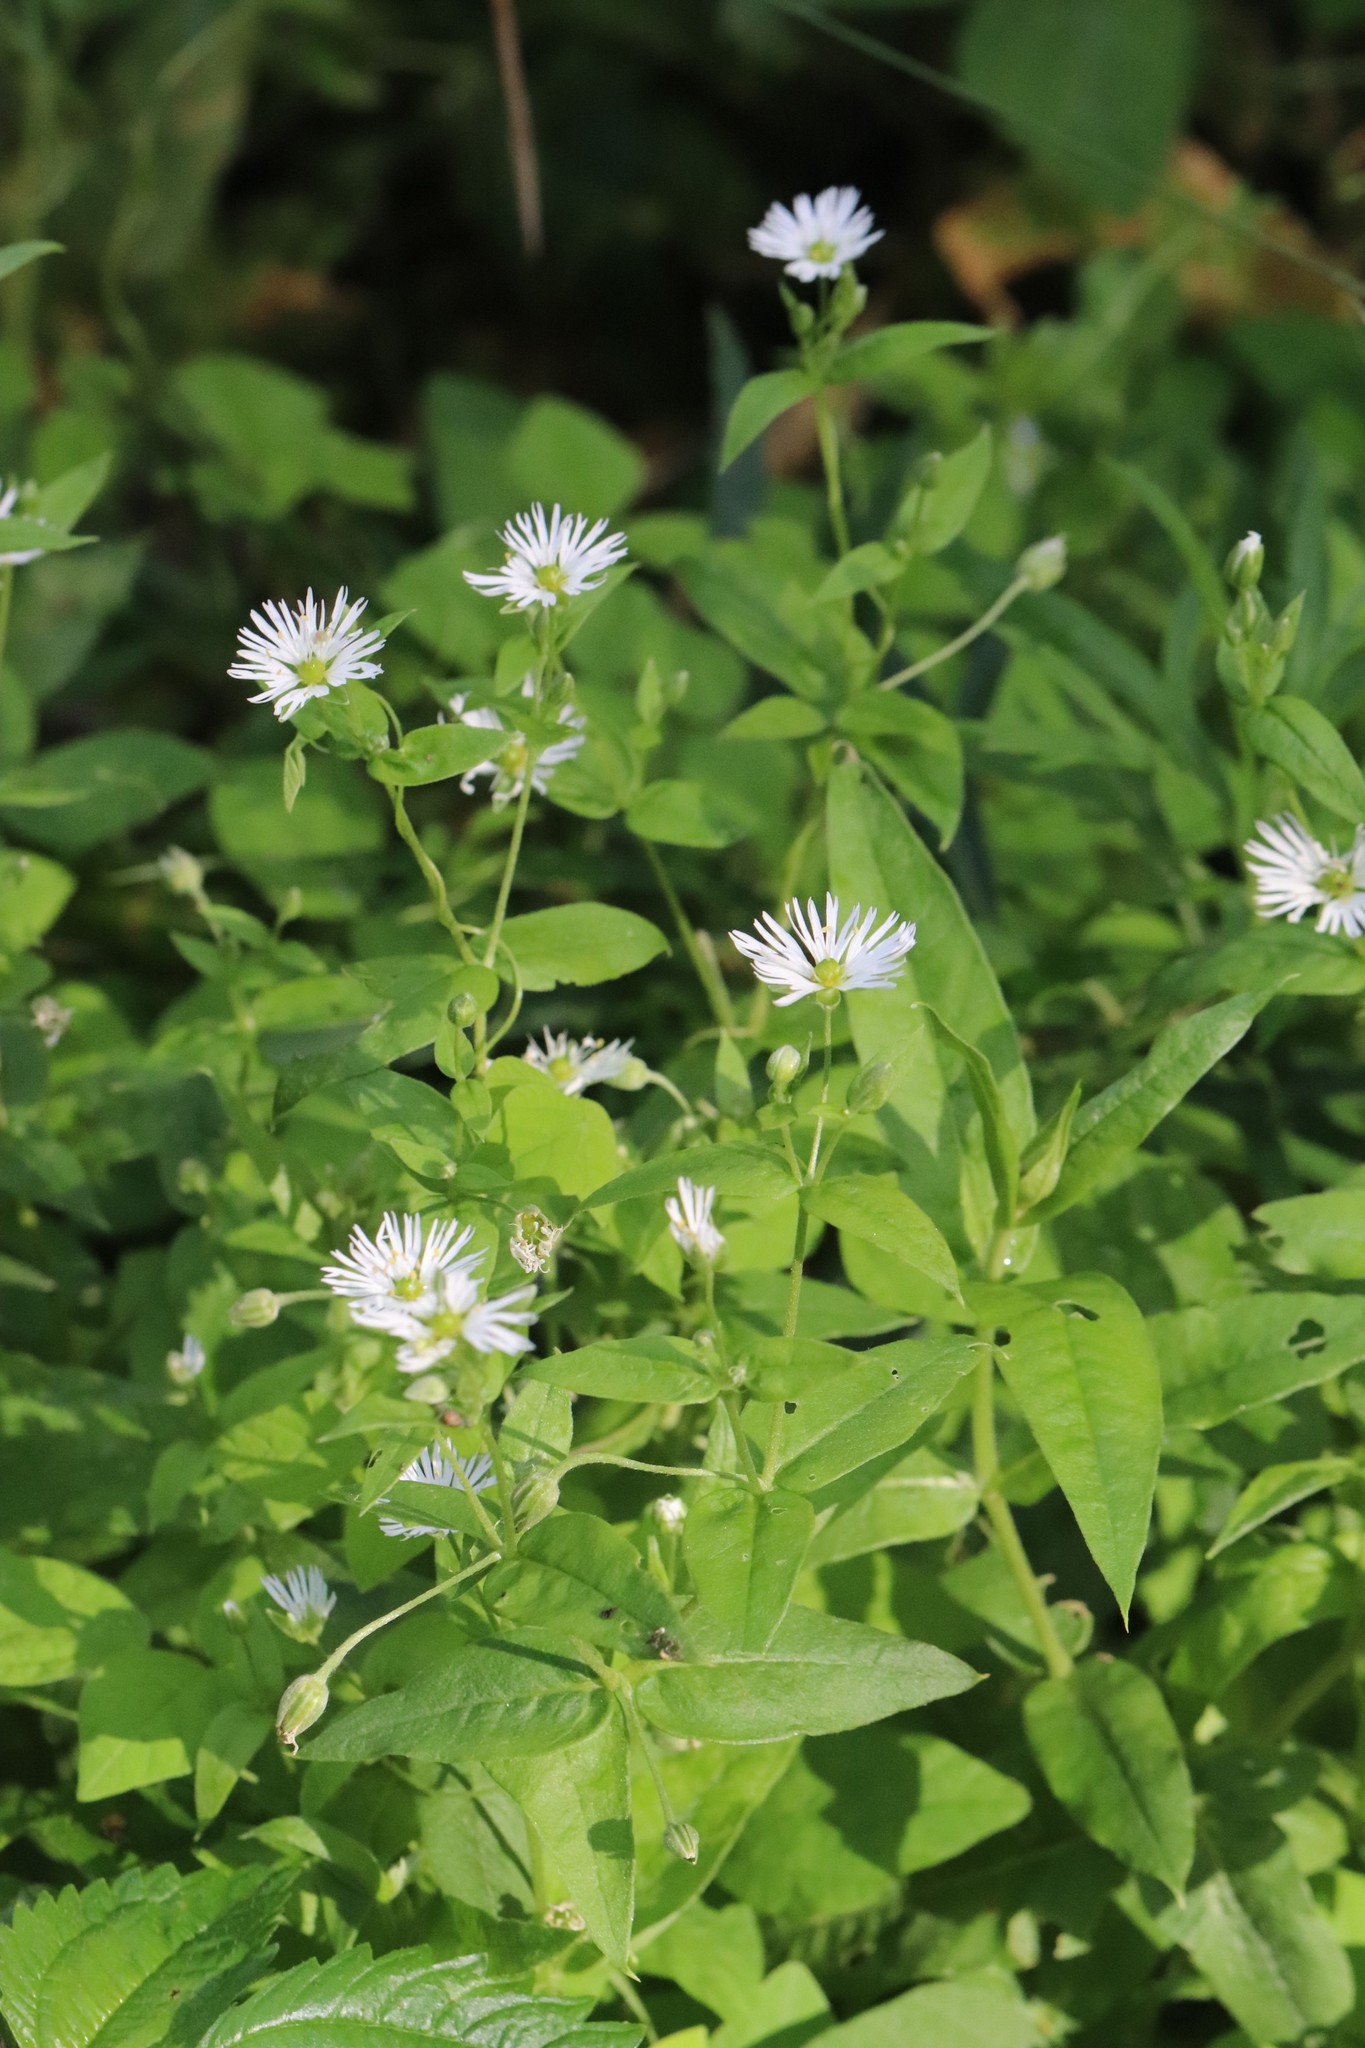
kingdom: Plantae
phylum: Tracheophyta
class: Magnoliopsida
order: Caryophyllales
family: Caryophyllaceae
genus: Stellaria
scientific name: Stellaria radians
